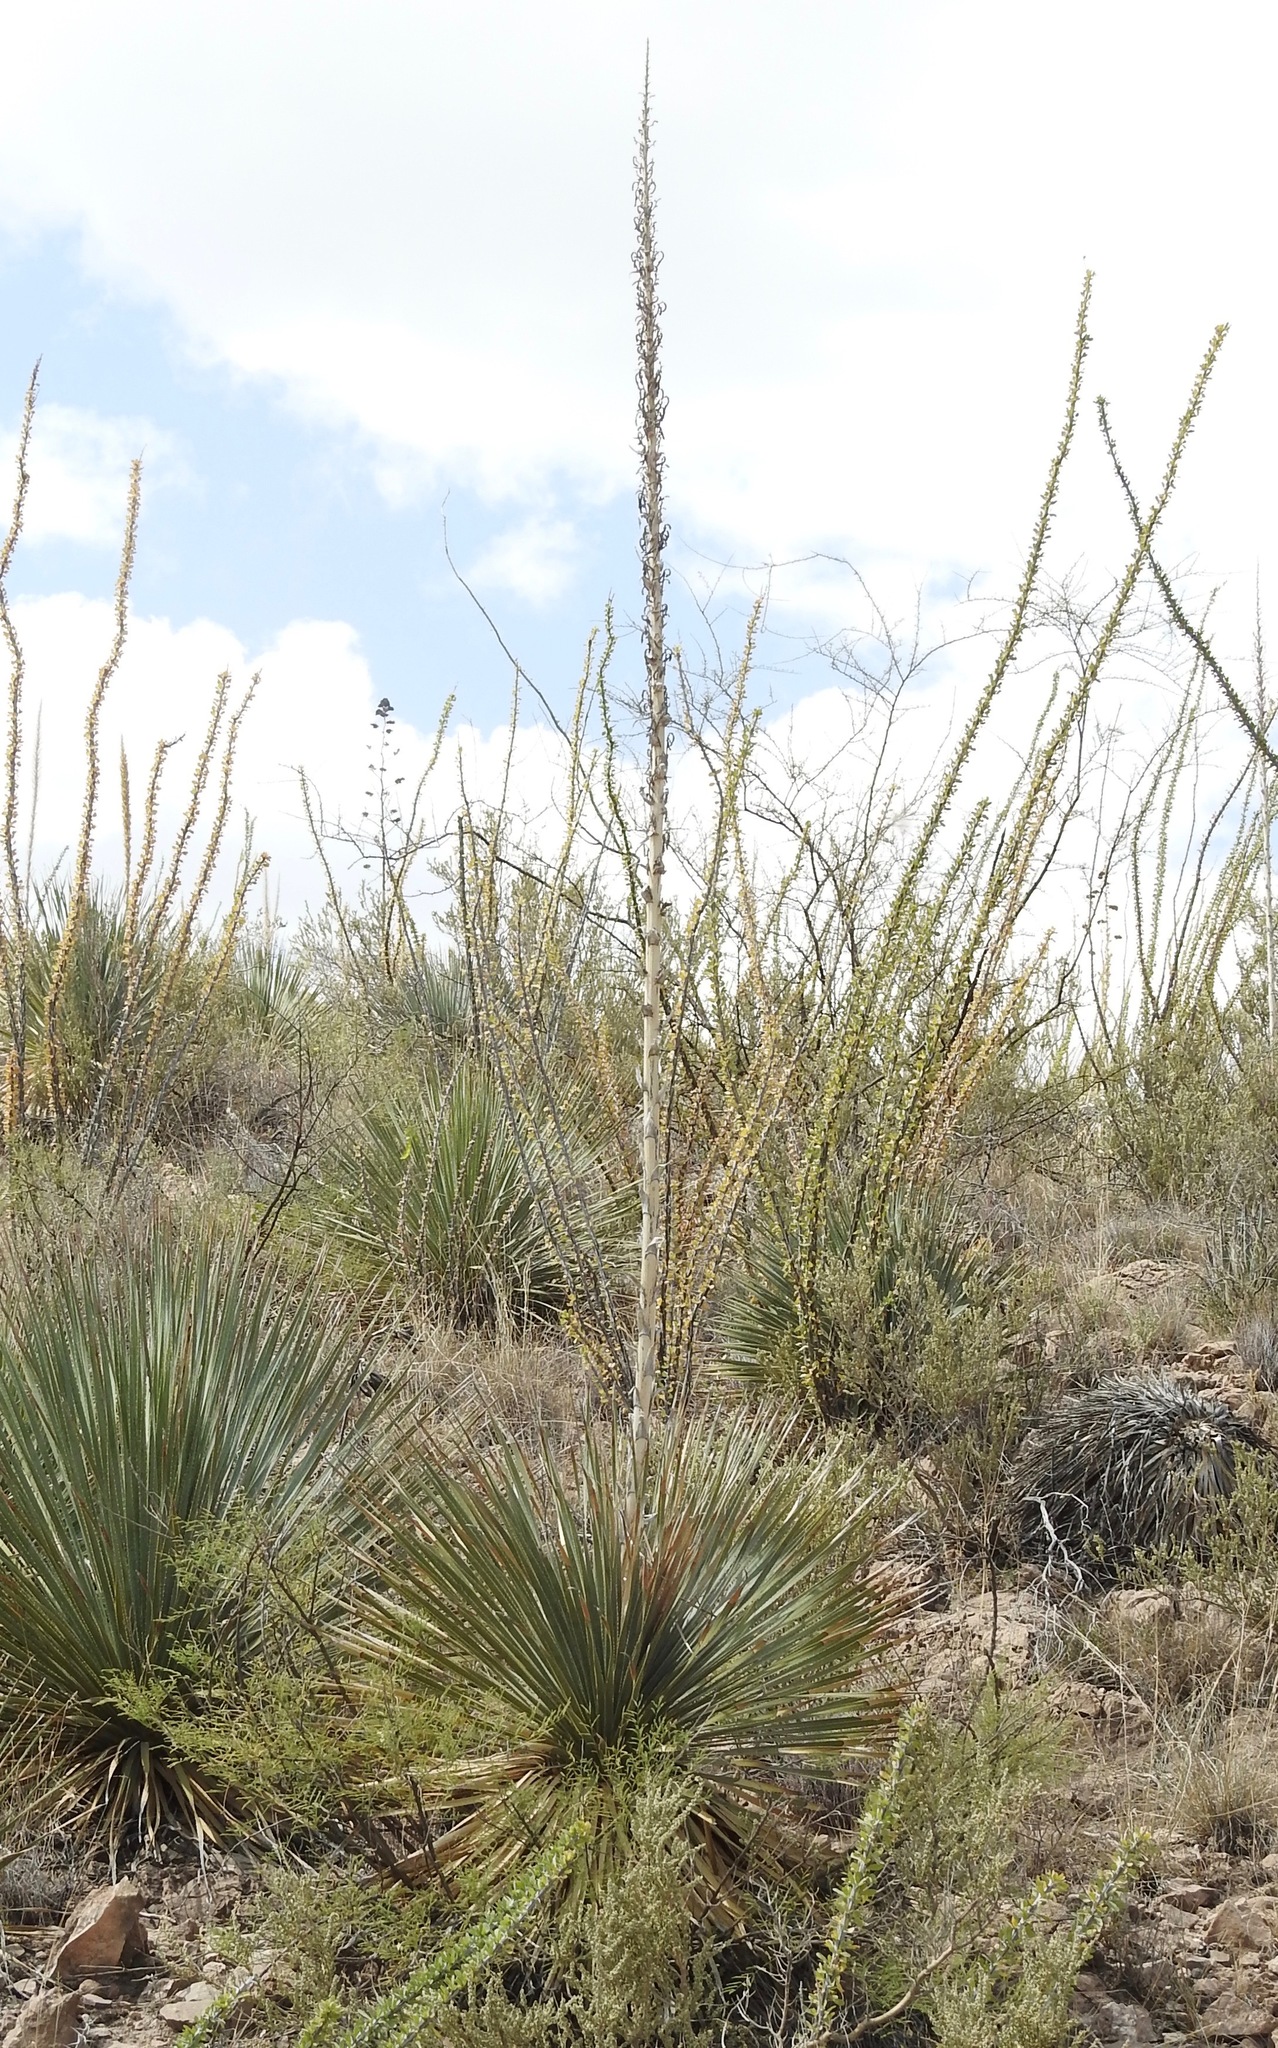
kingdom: Plantae
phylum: Tracheophyta
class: Liliopsida
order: Asparagales
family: Asparagaceae
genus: Dasylirion
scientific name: Dasylirion wheeleri
